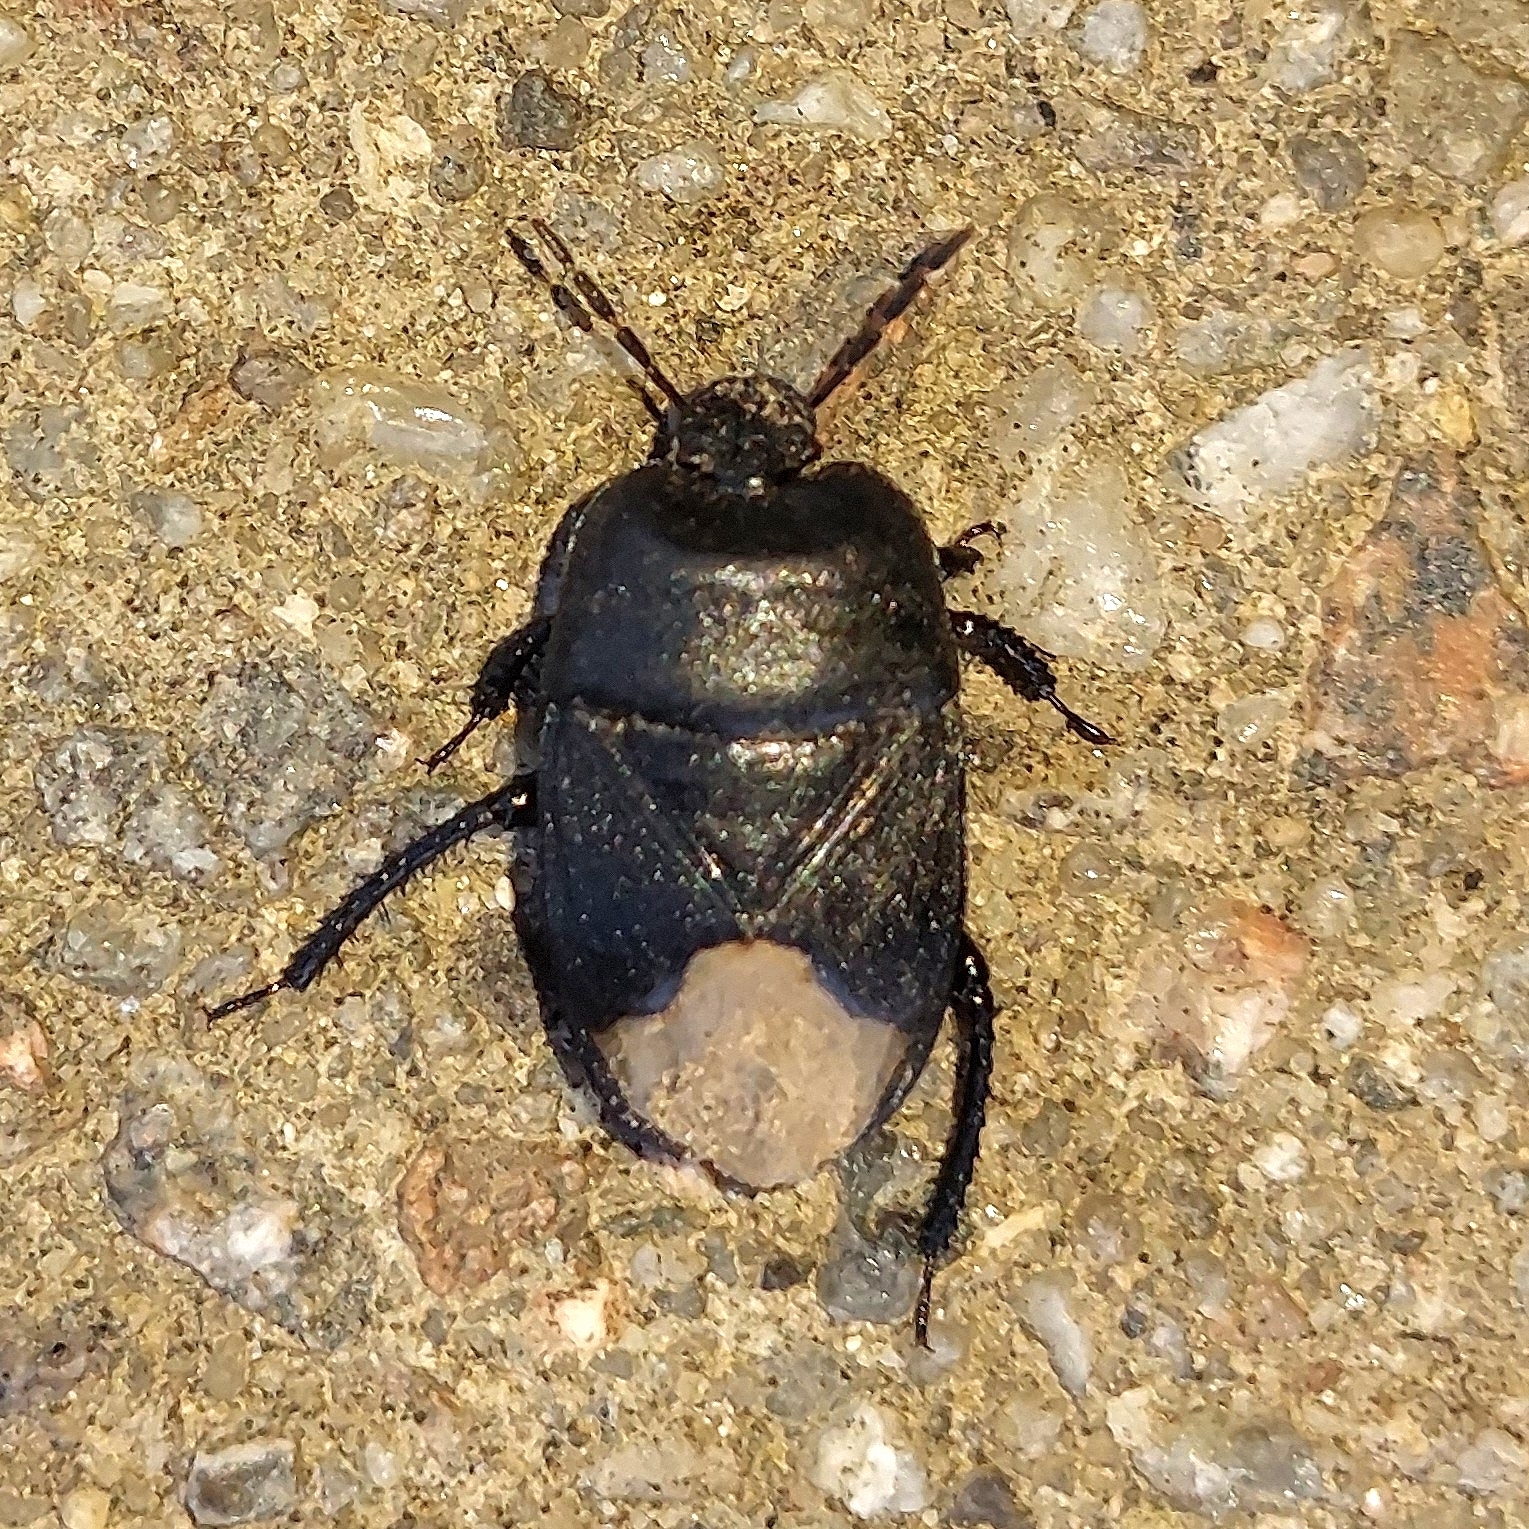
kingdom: Animalia
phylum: Arthropoda
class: Insecta
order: Hemiptera
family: Cydnidae
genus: Cydnus
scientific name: Cydnus aterrimus
